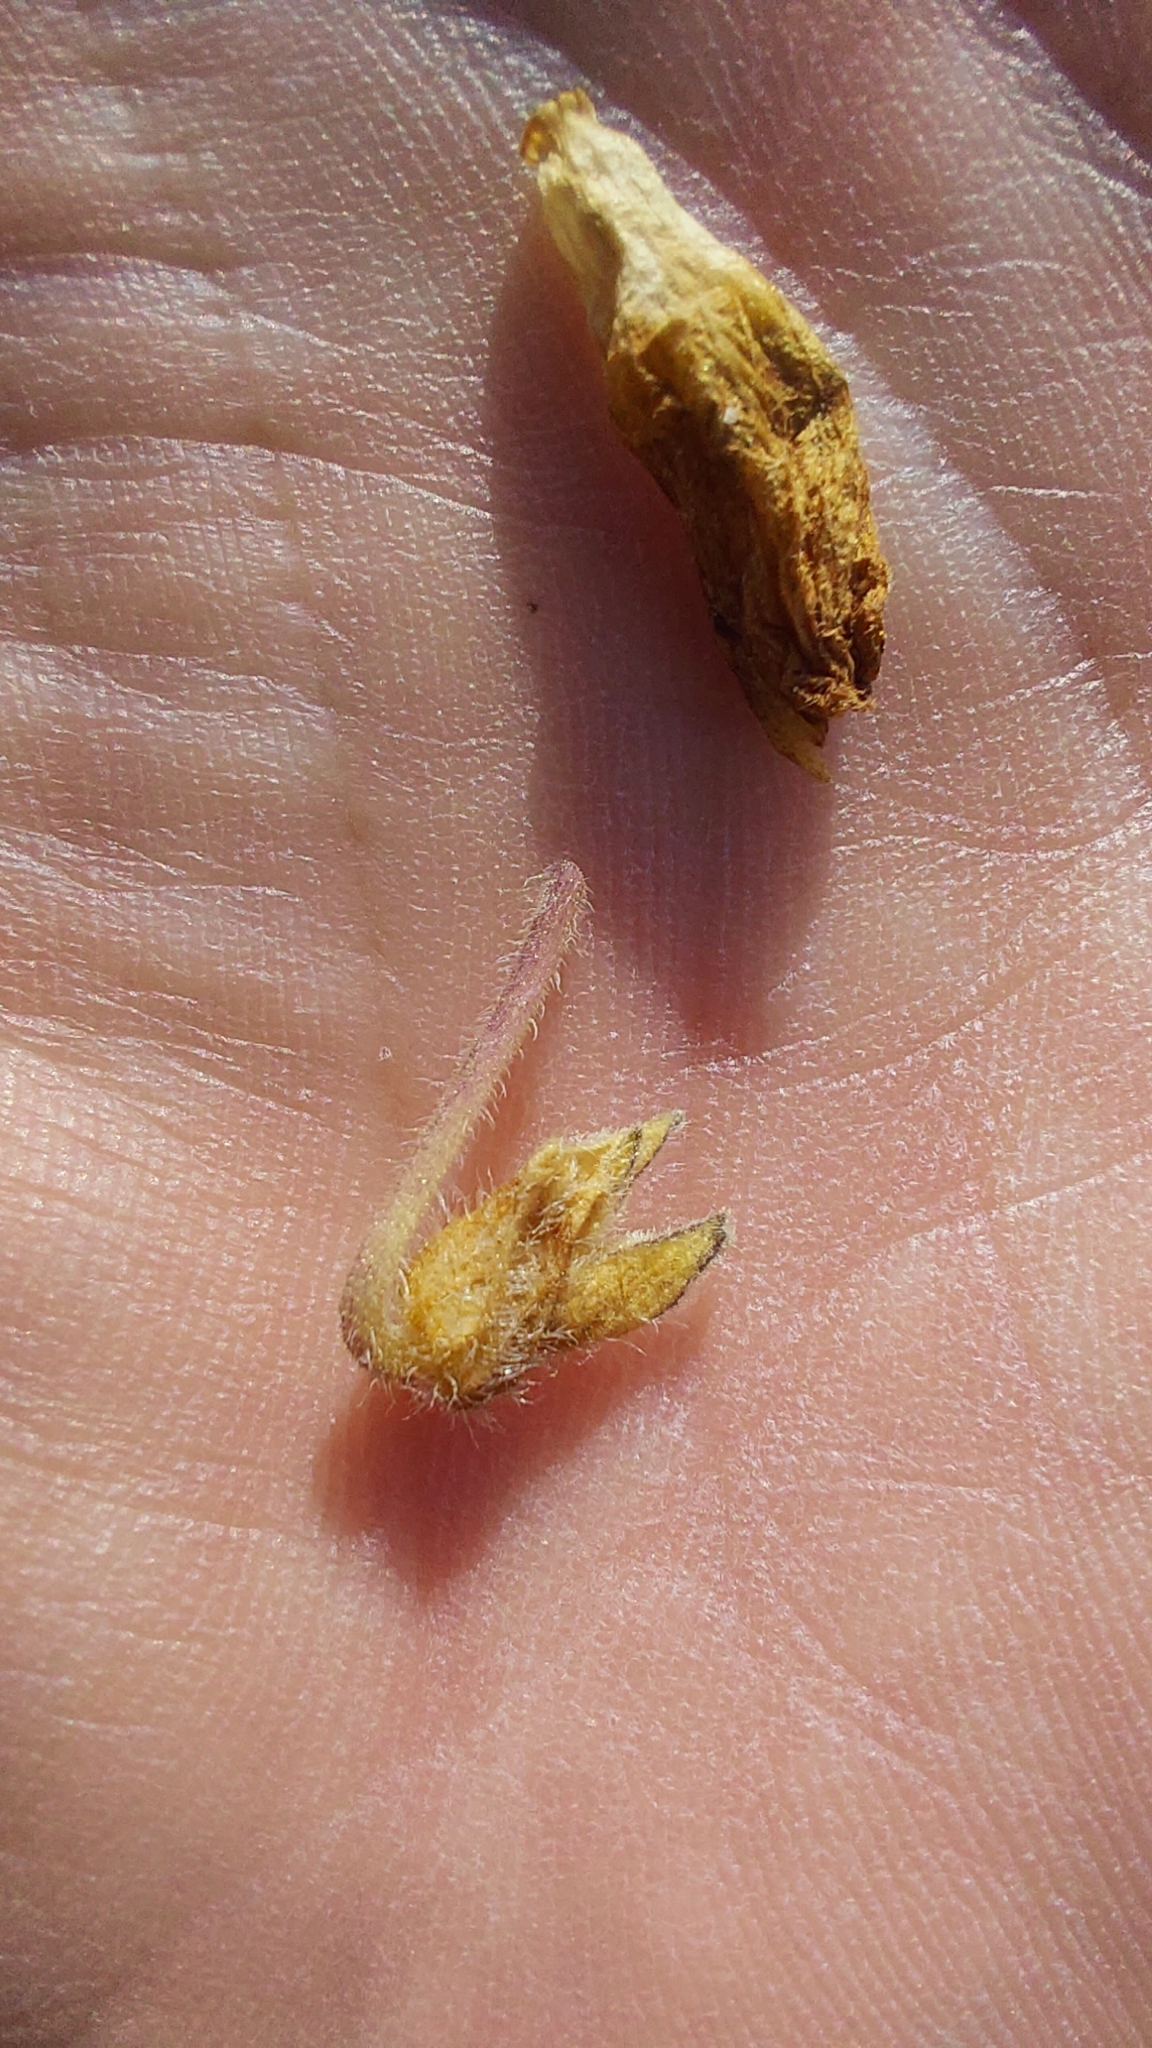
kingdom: Plantae
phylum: Tracheophyta
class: Magnoliopsida
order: Solanales
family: Solanaceae
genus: Physalis
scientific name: Physalis arenicola
